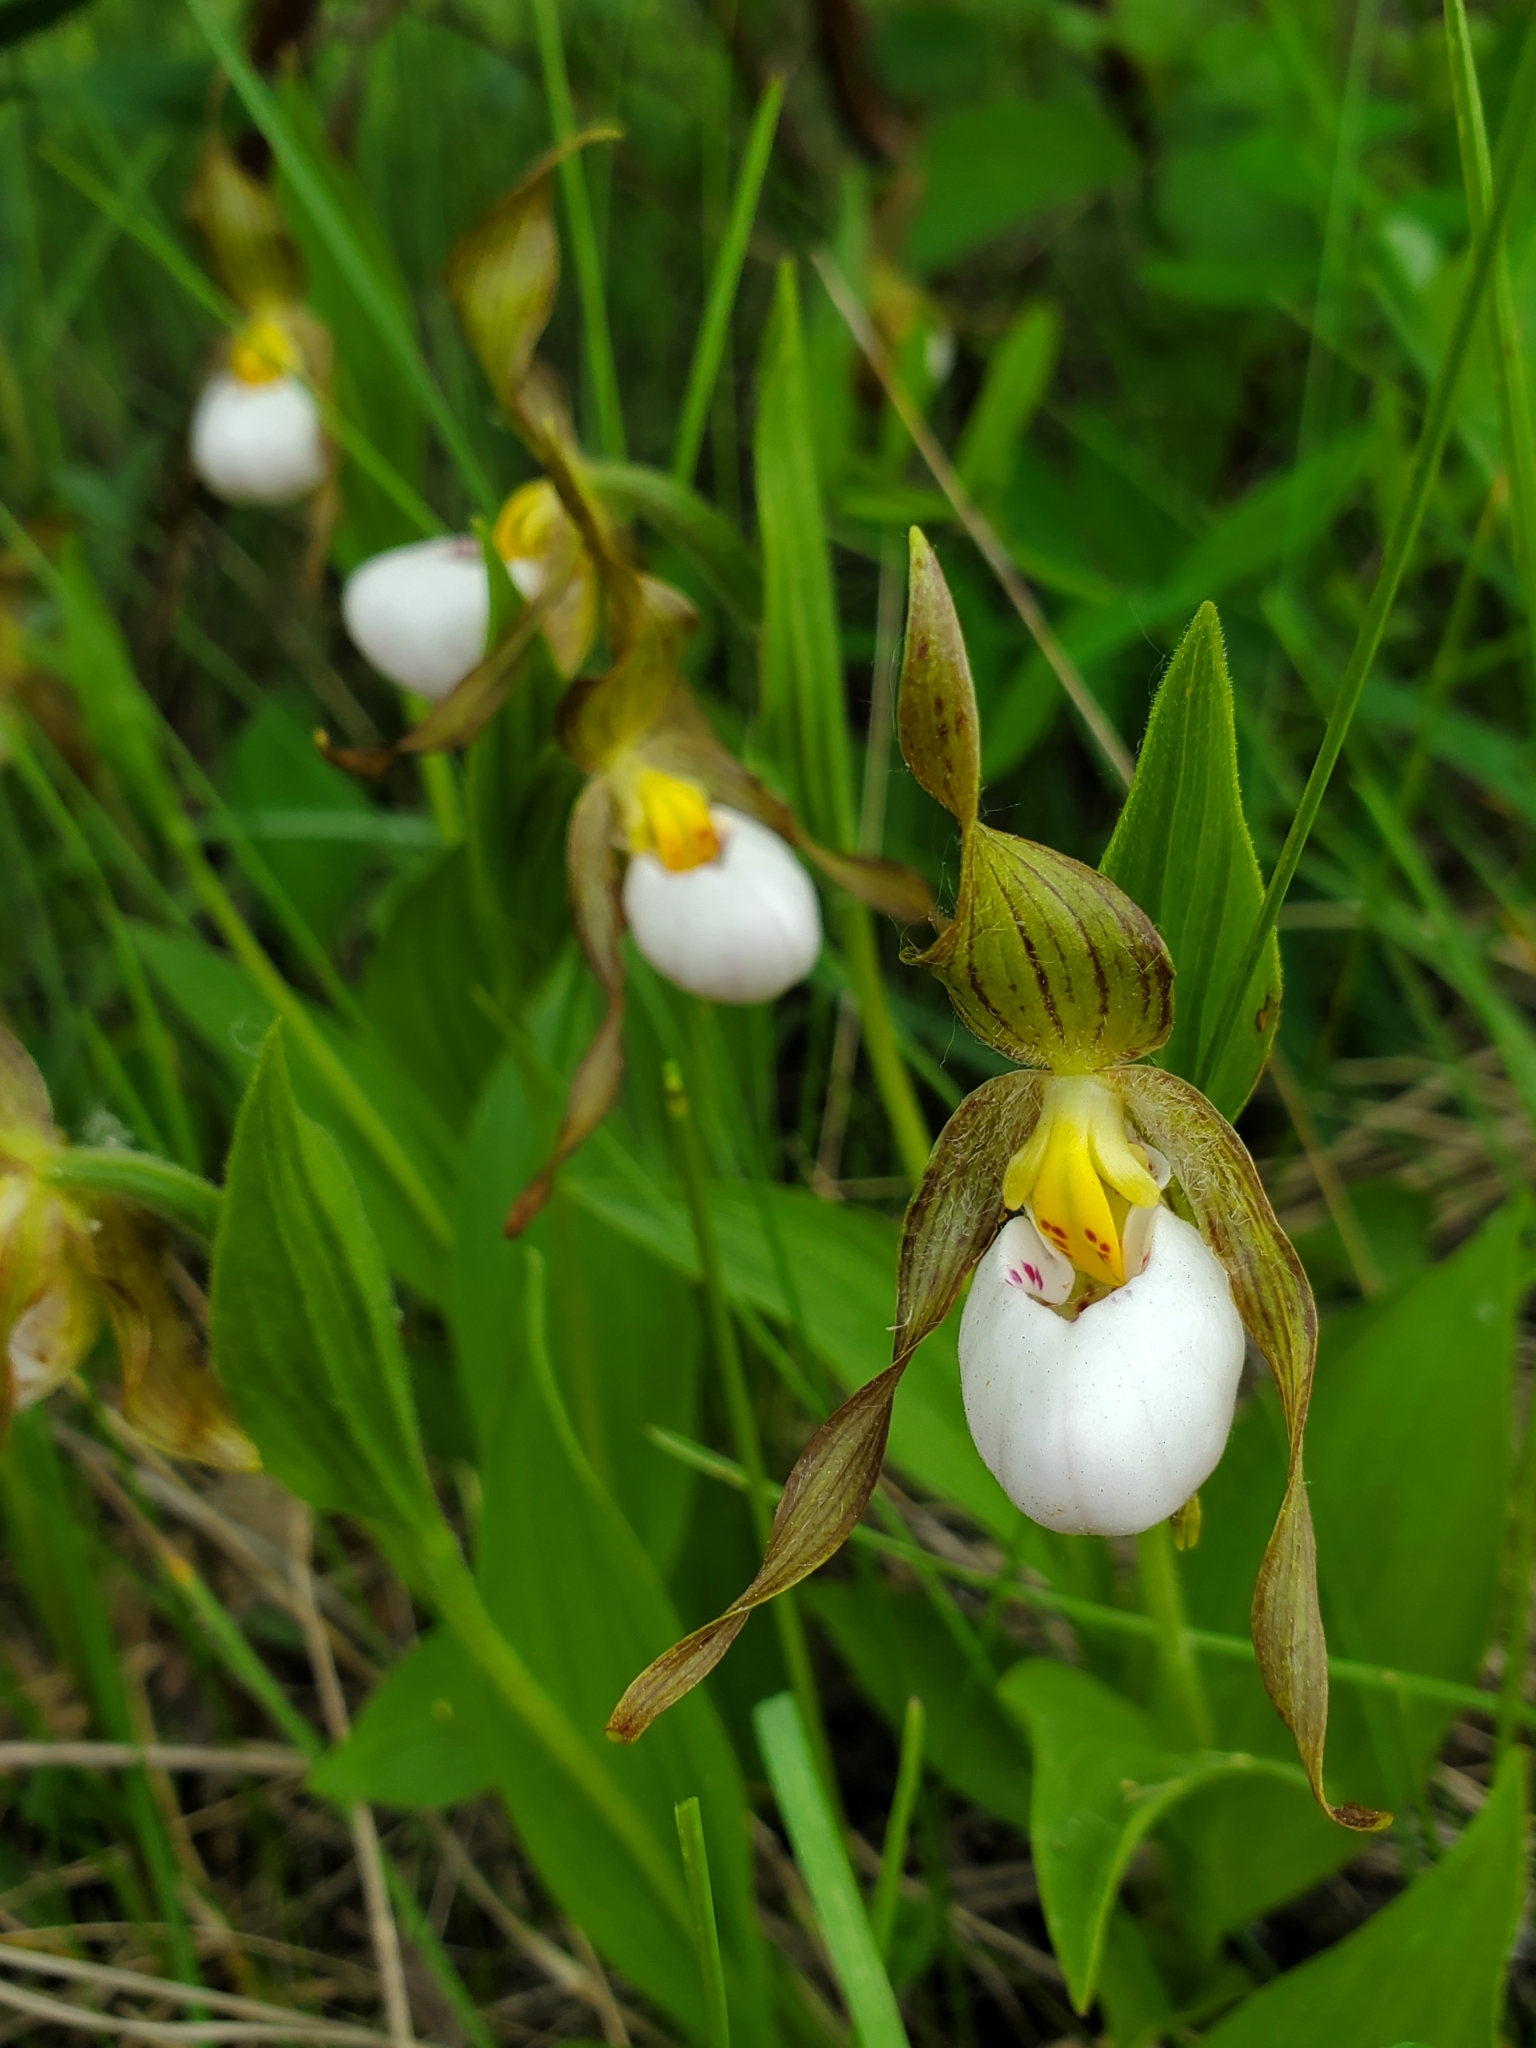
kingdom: Plantae
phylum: Tracheophyta
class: Liliopsida
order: Asparagales
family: Orchidaceae
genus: Cypripedium
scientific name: Cypripedium candidum
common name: White lady's-slipper
